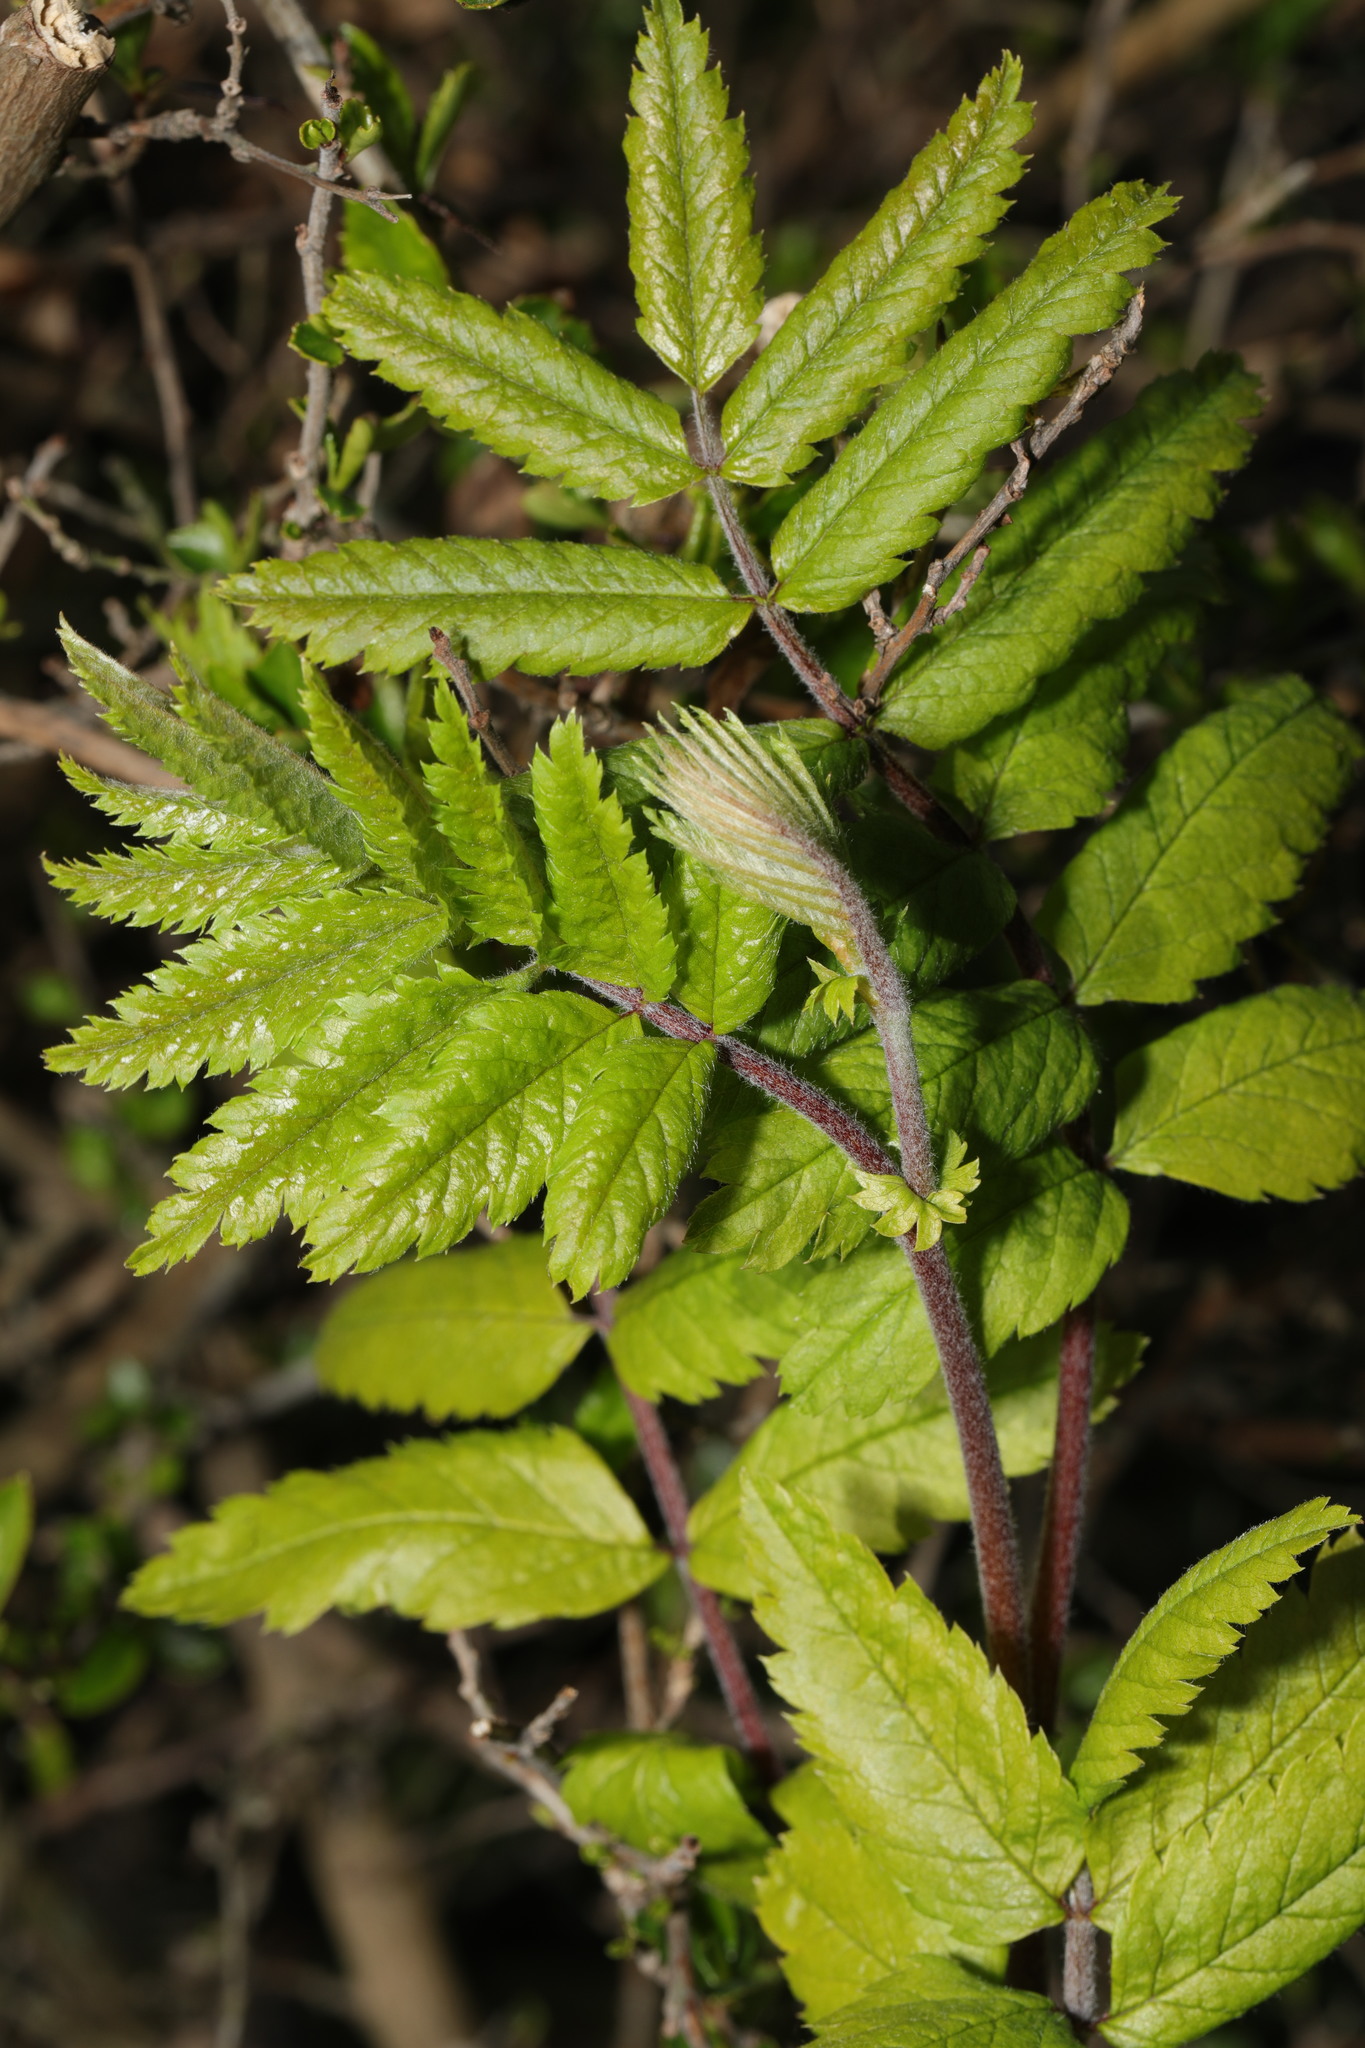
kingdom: Plantae
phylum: Tracheophyta
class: Magnoliopsida
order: Rosales
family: Rosaceae
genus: Sorbus
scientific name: Sorbus aucuparia
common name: Rowan
